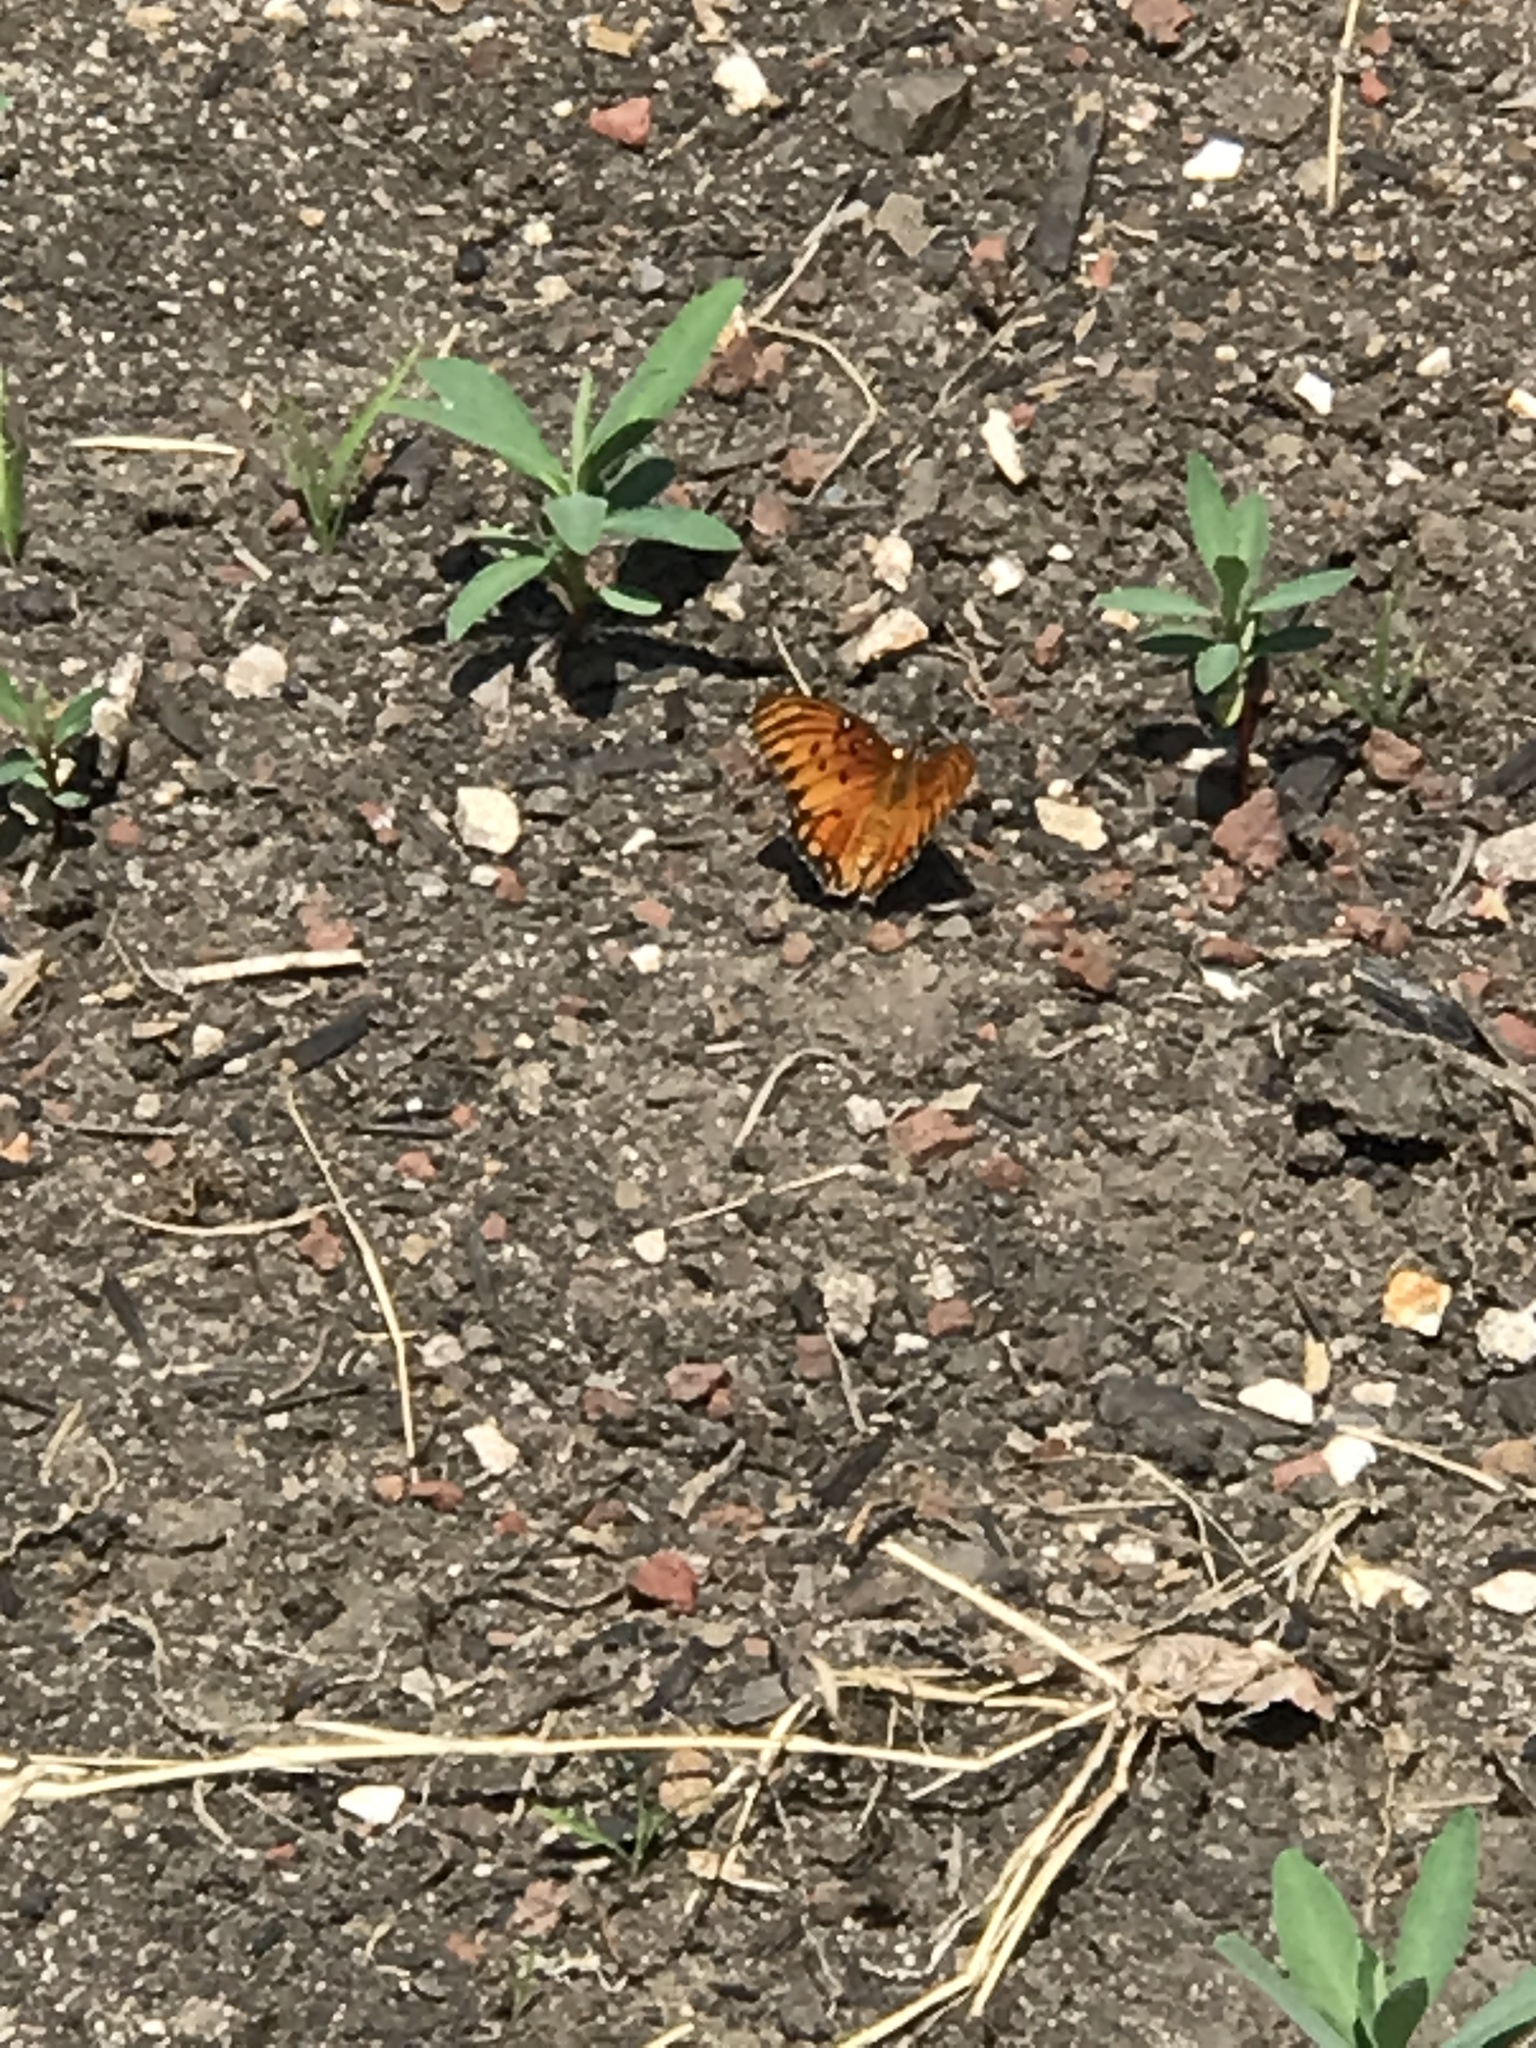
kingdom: Animalia
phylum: Arthropoda
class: Insecta
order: Lepidoptera
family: Nymphalidae
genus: Dione
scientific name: Dione vanillae
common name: Gulf fritillary
